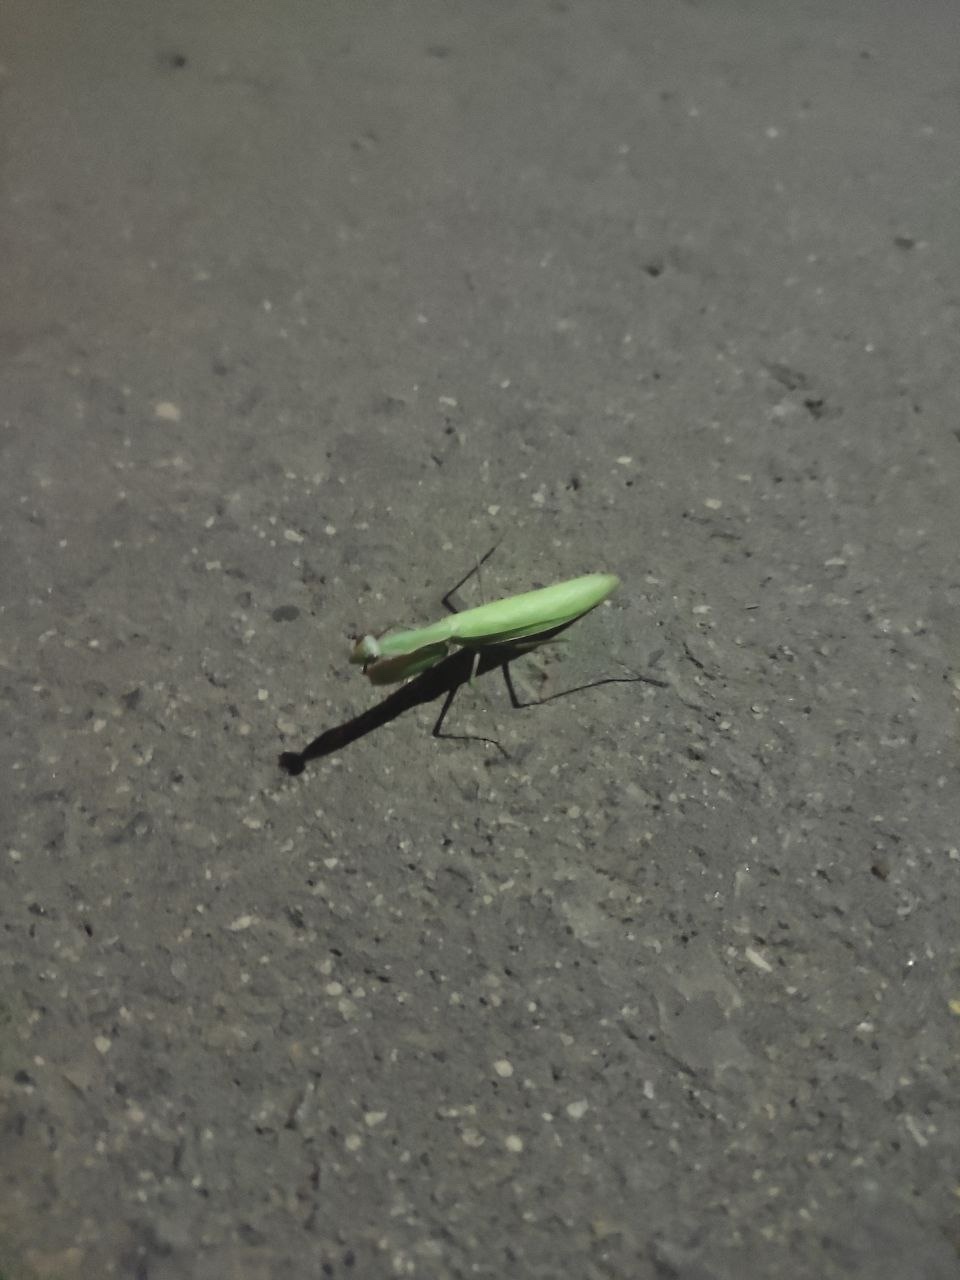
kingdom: Animalia
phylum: Arthropoda
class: Insecta
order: Mantodea
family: Mantidae
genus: Mantis
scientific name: Mantis religiosa
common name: Praying mantis
